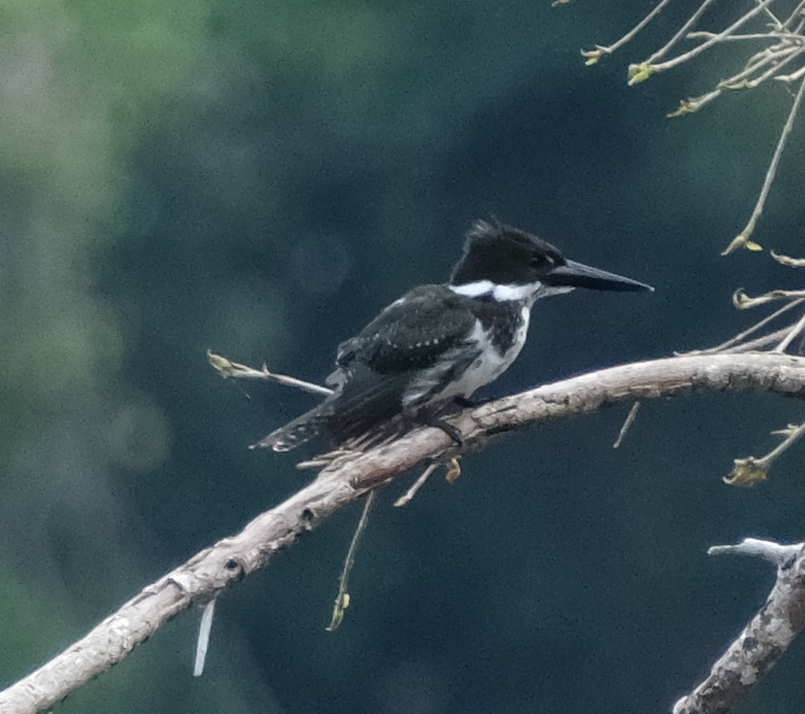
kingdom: Animalia
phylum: Chordata
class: Aves
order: Coraciiformes
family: Alcedinidae
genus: Chloroceryle
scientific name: Chloroceryle amazona
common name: Amazon kingfisher
